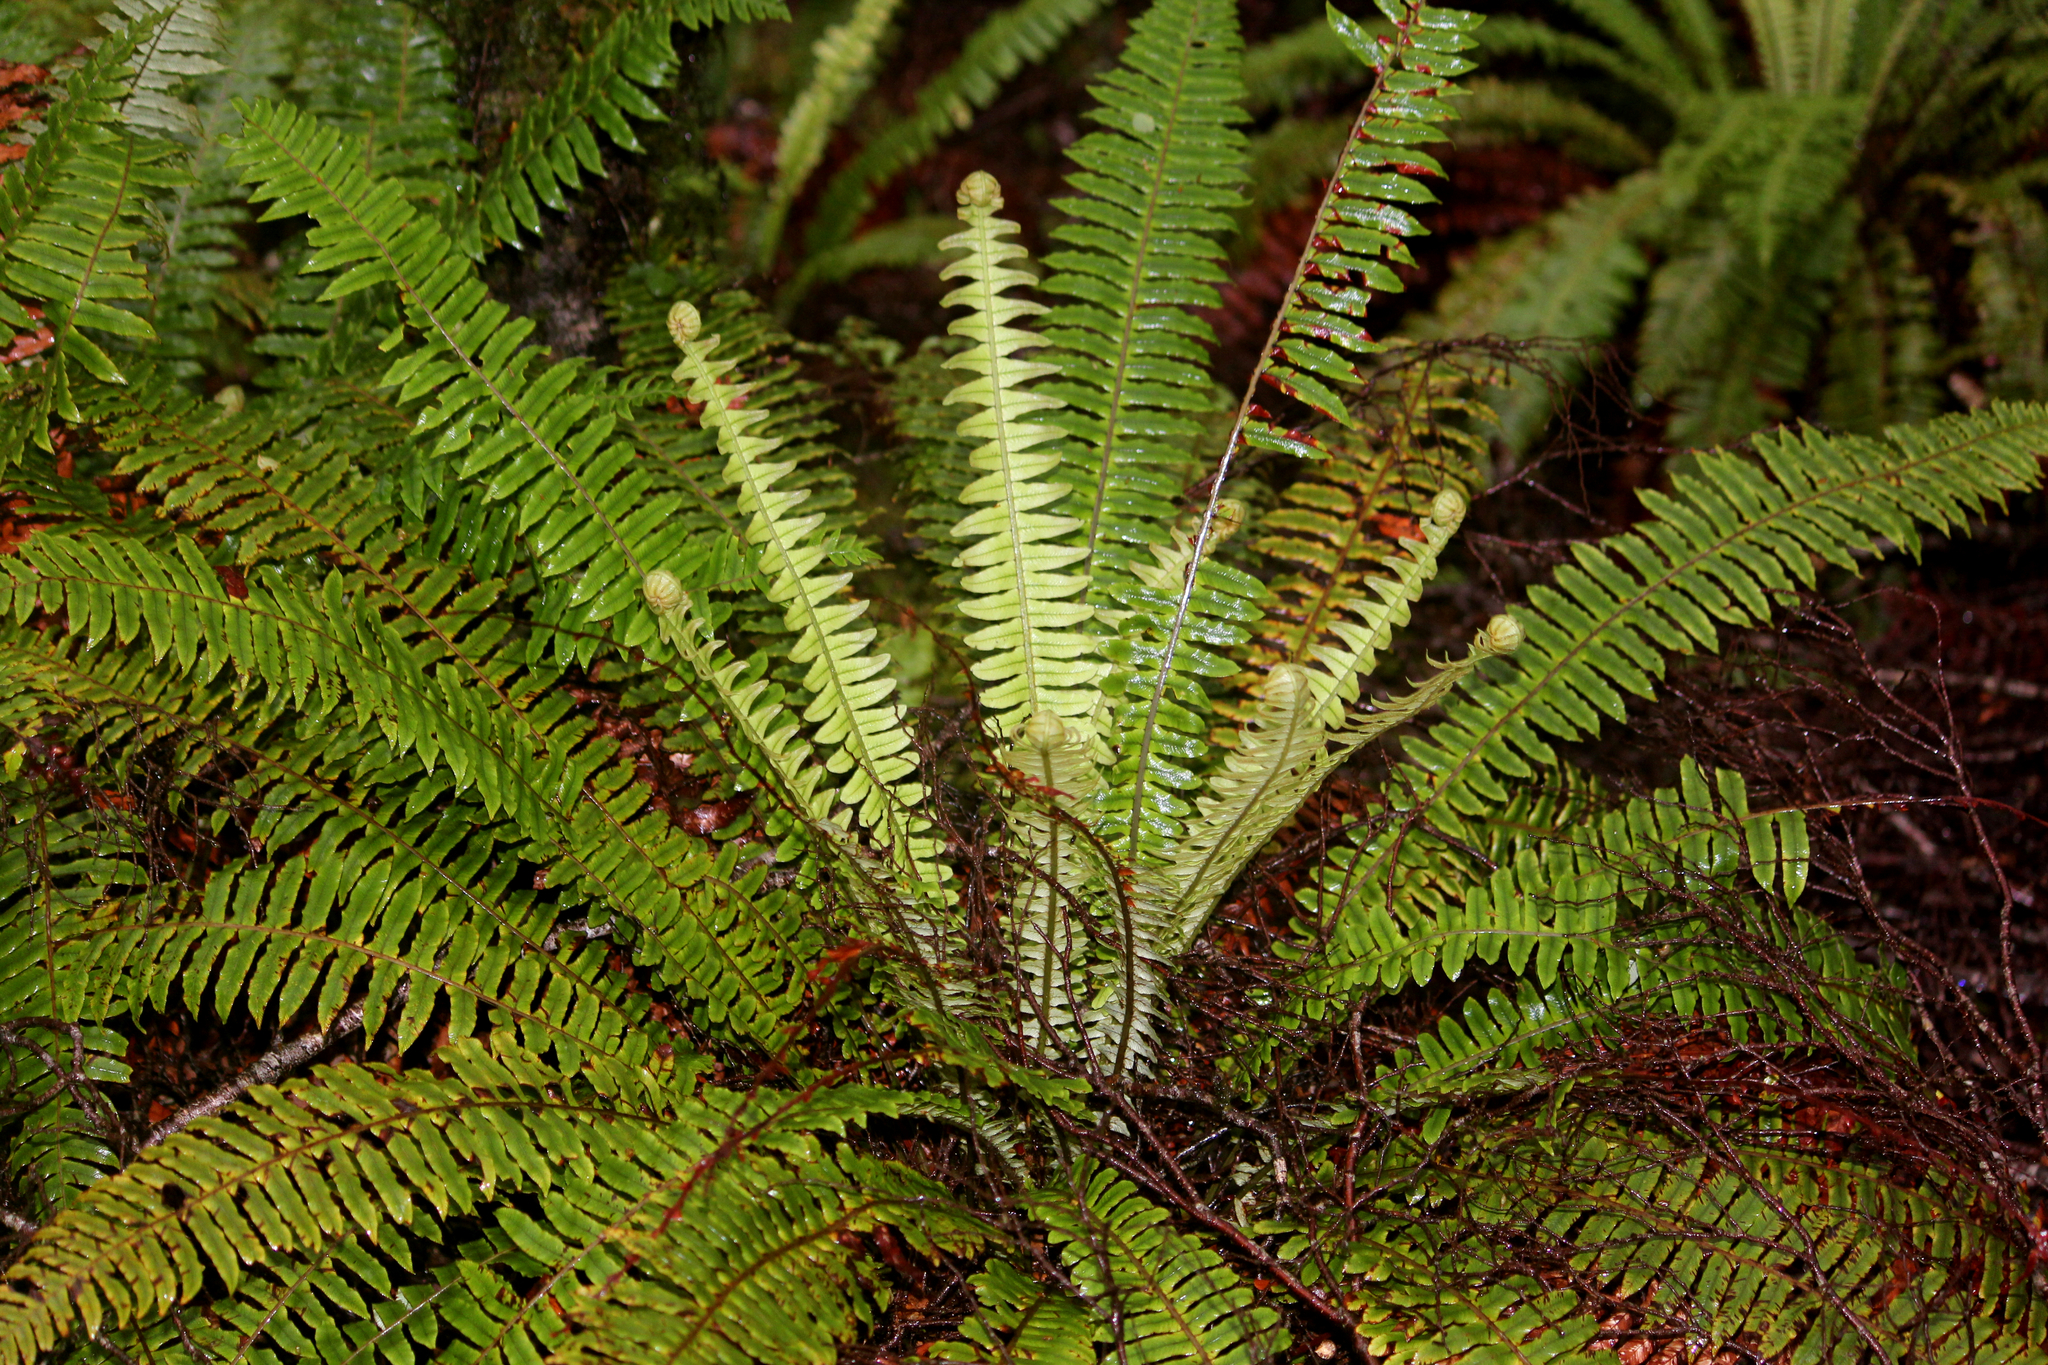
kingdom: Plantae
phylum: Tracheophyta
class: Polypodiopsida
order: Polypodiales
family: Blechnaceae
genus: Lomaria
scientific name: Lomaria discolor
